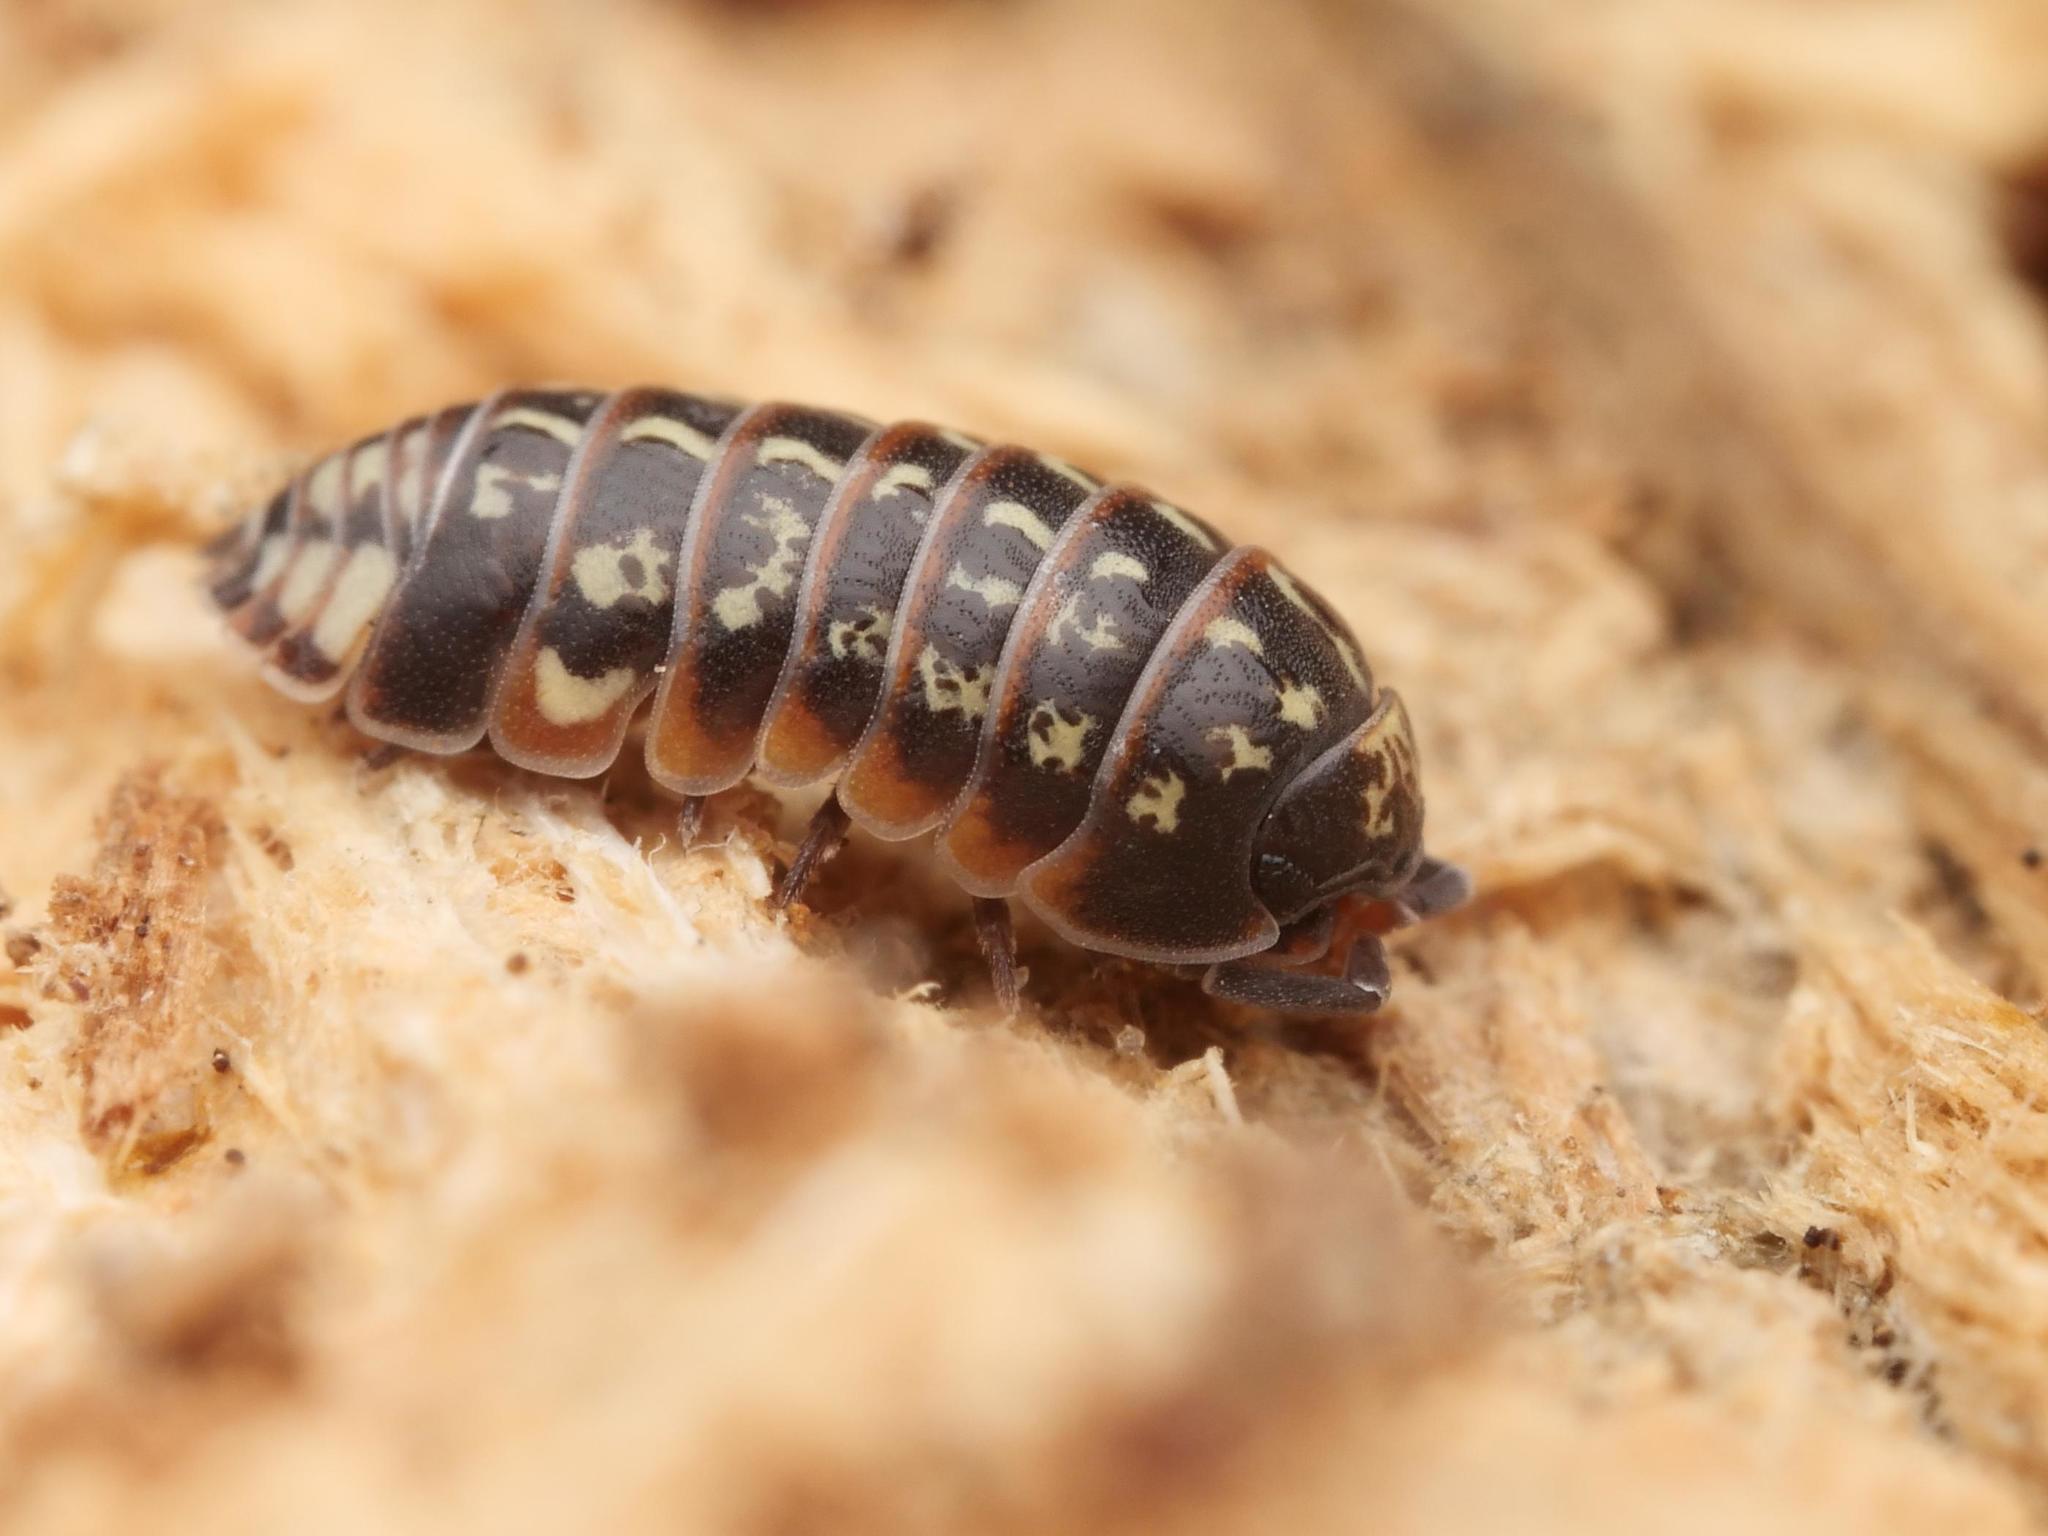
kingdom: Animalia
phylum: Arthropoda
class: Malacostraca
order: Isopoda
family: Armadillidiidae
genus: Armadillidium
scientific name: Armadillidium pulchellum
